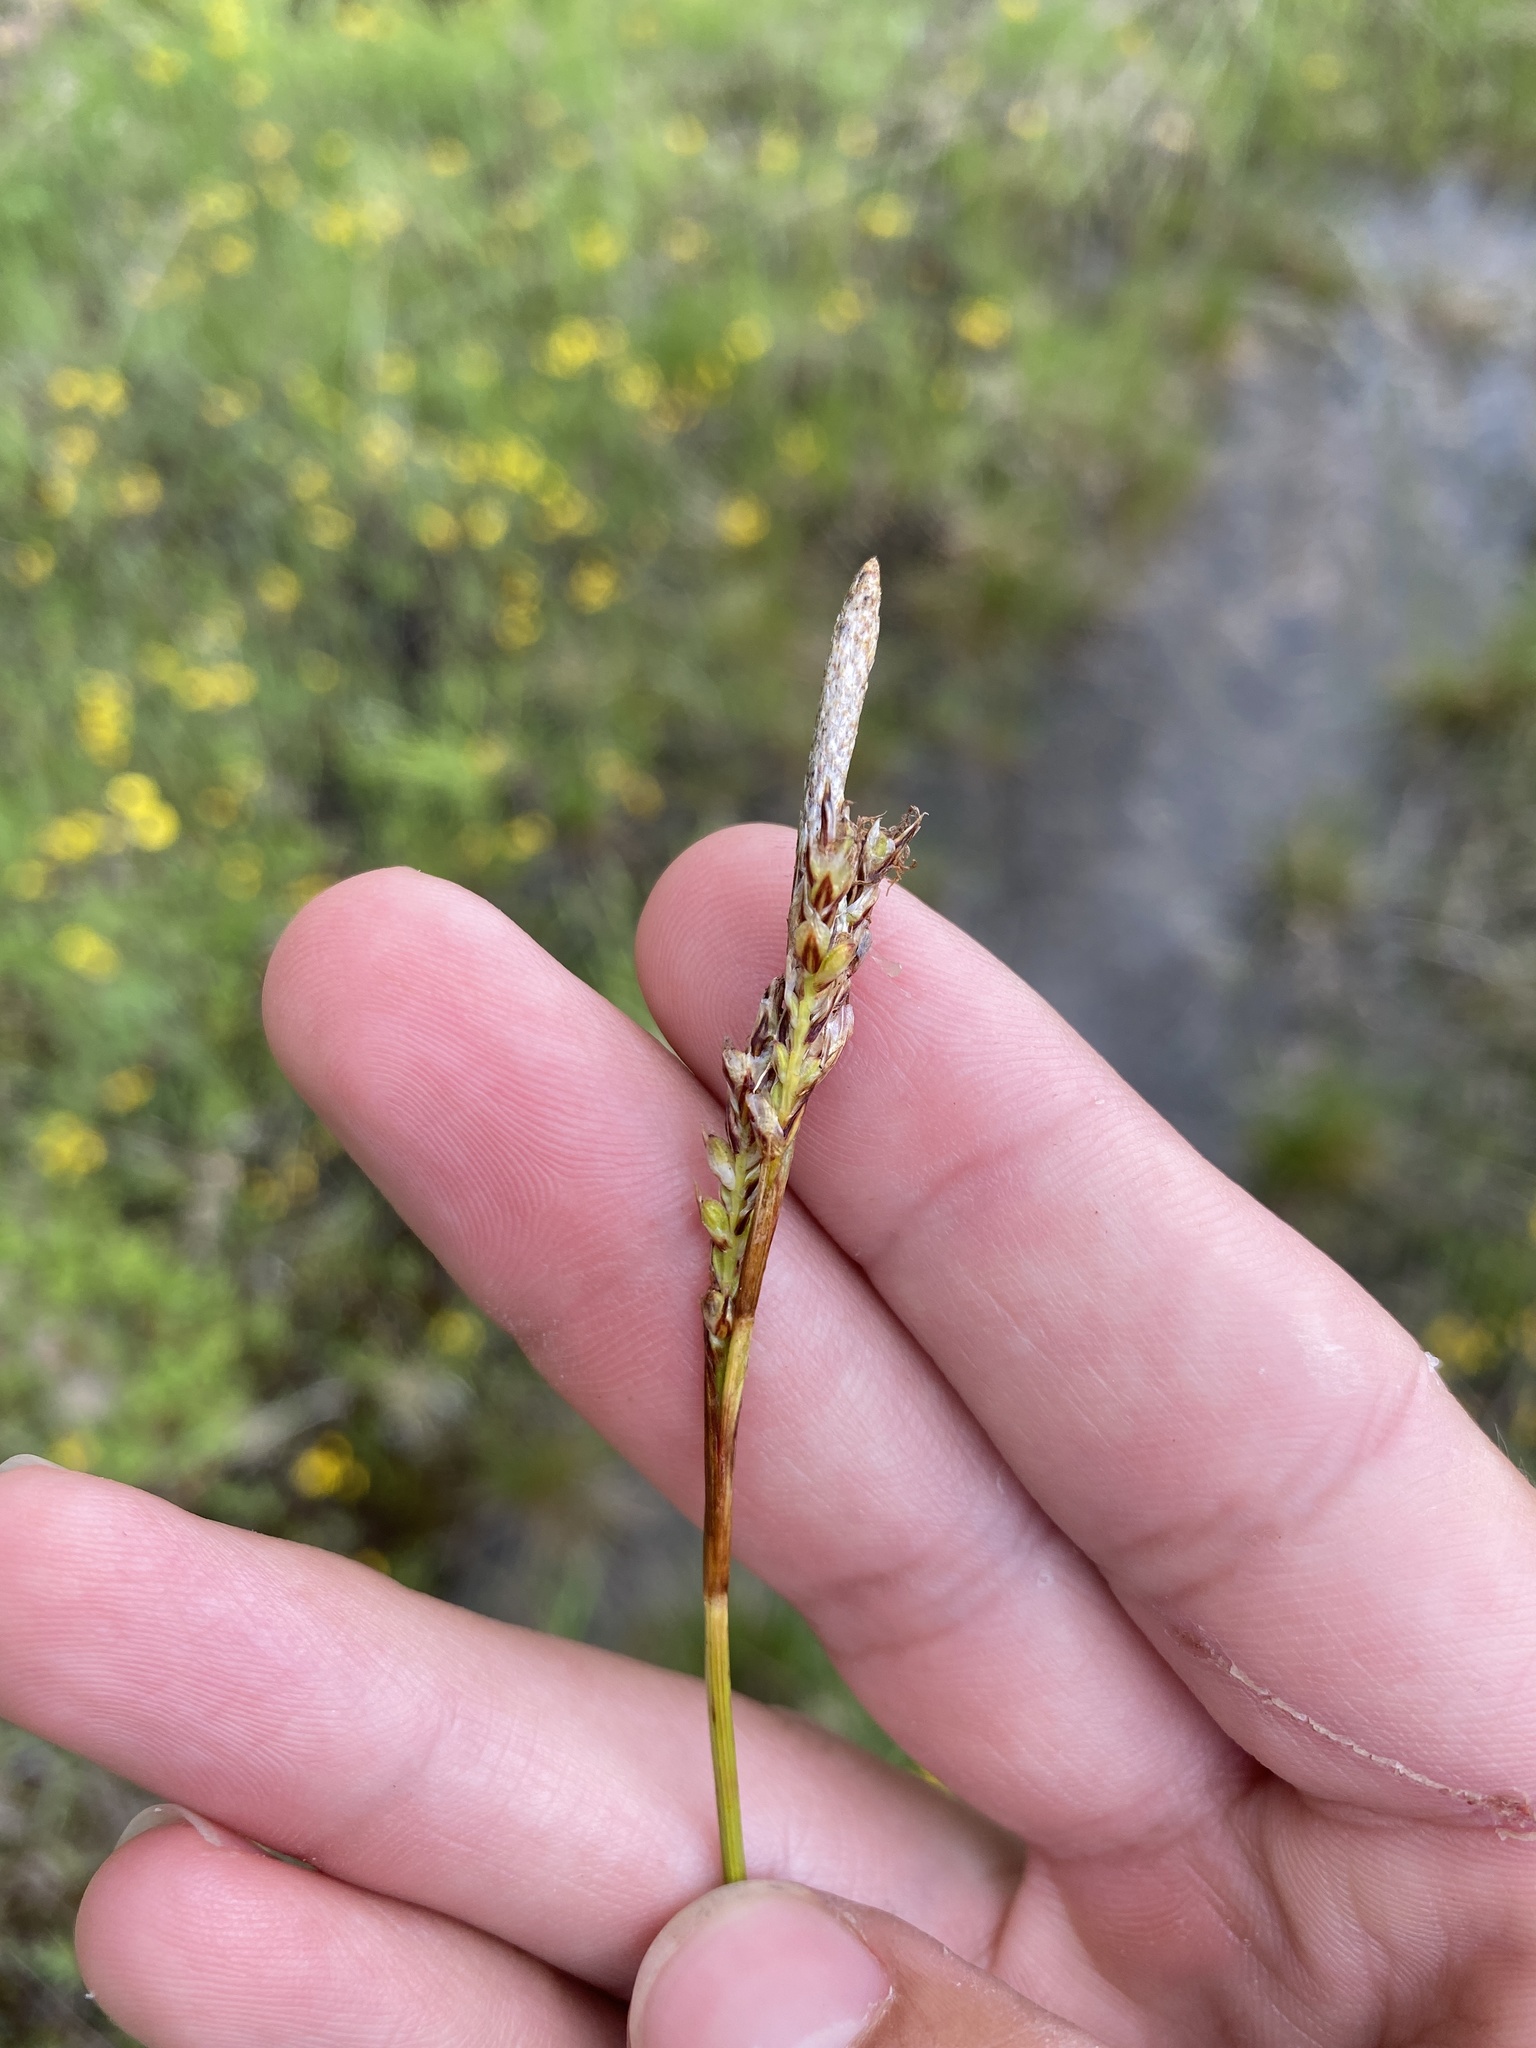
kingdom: Plantae
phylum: Tracheophyta
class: Liliopsida
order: Poales
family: Cyperaceae
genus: Carex
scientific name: Carex richardsonii
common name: Prairie hummock sedge
